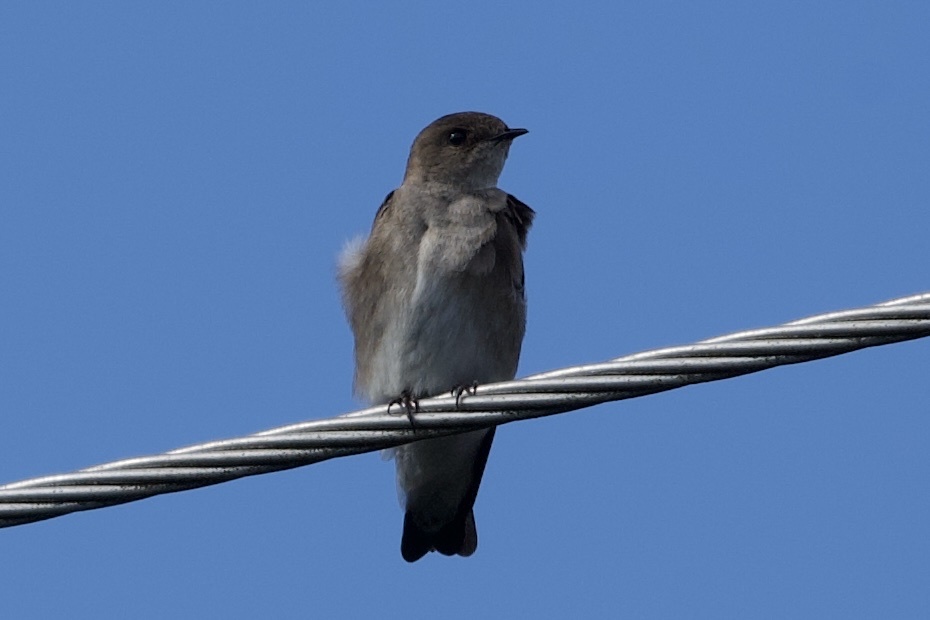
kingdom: Animalia
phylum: Chordata
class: Aves
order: Passeriformes
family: Hirundinidae
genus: Stelgidopteryx
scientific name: Stelgidopteryx serripennis
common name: Northern rough-winged swallow
